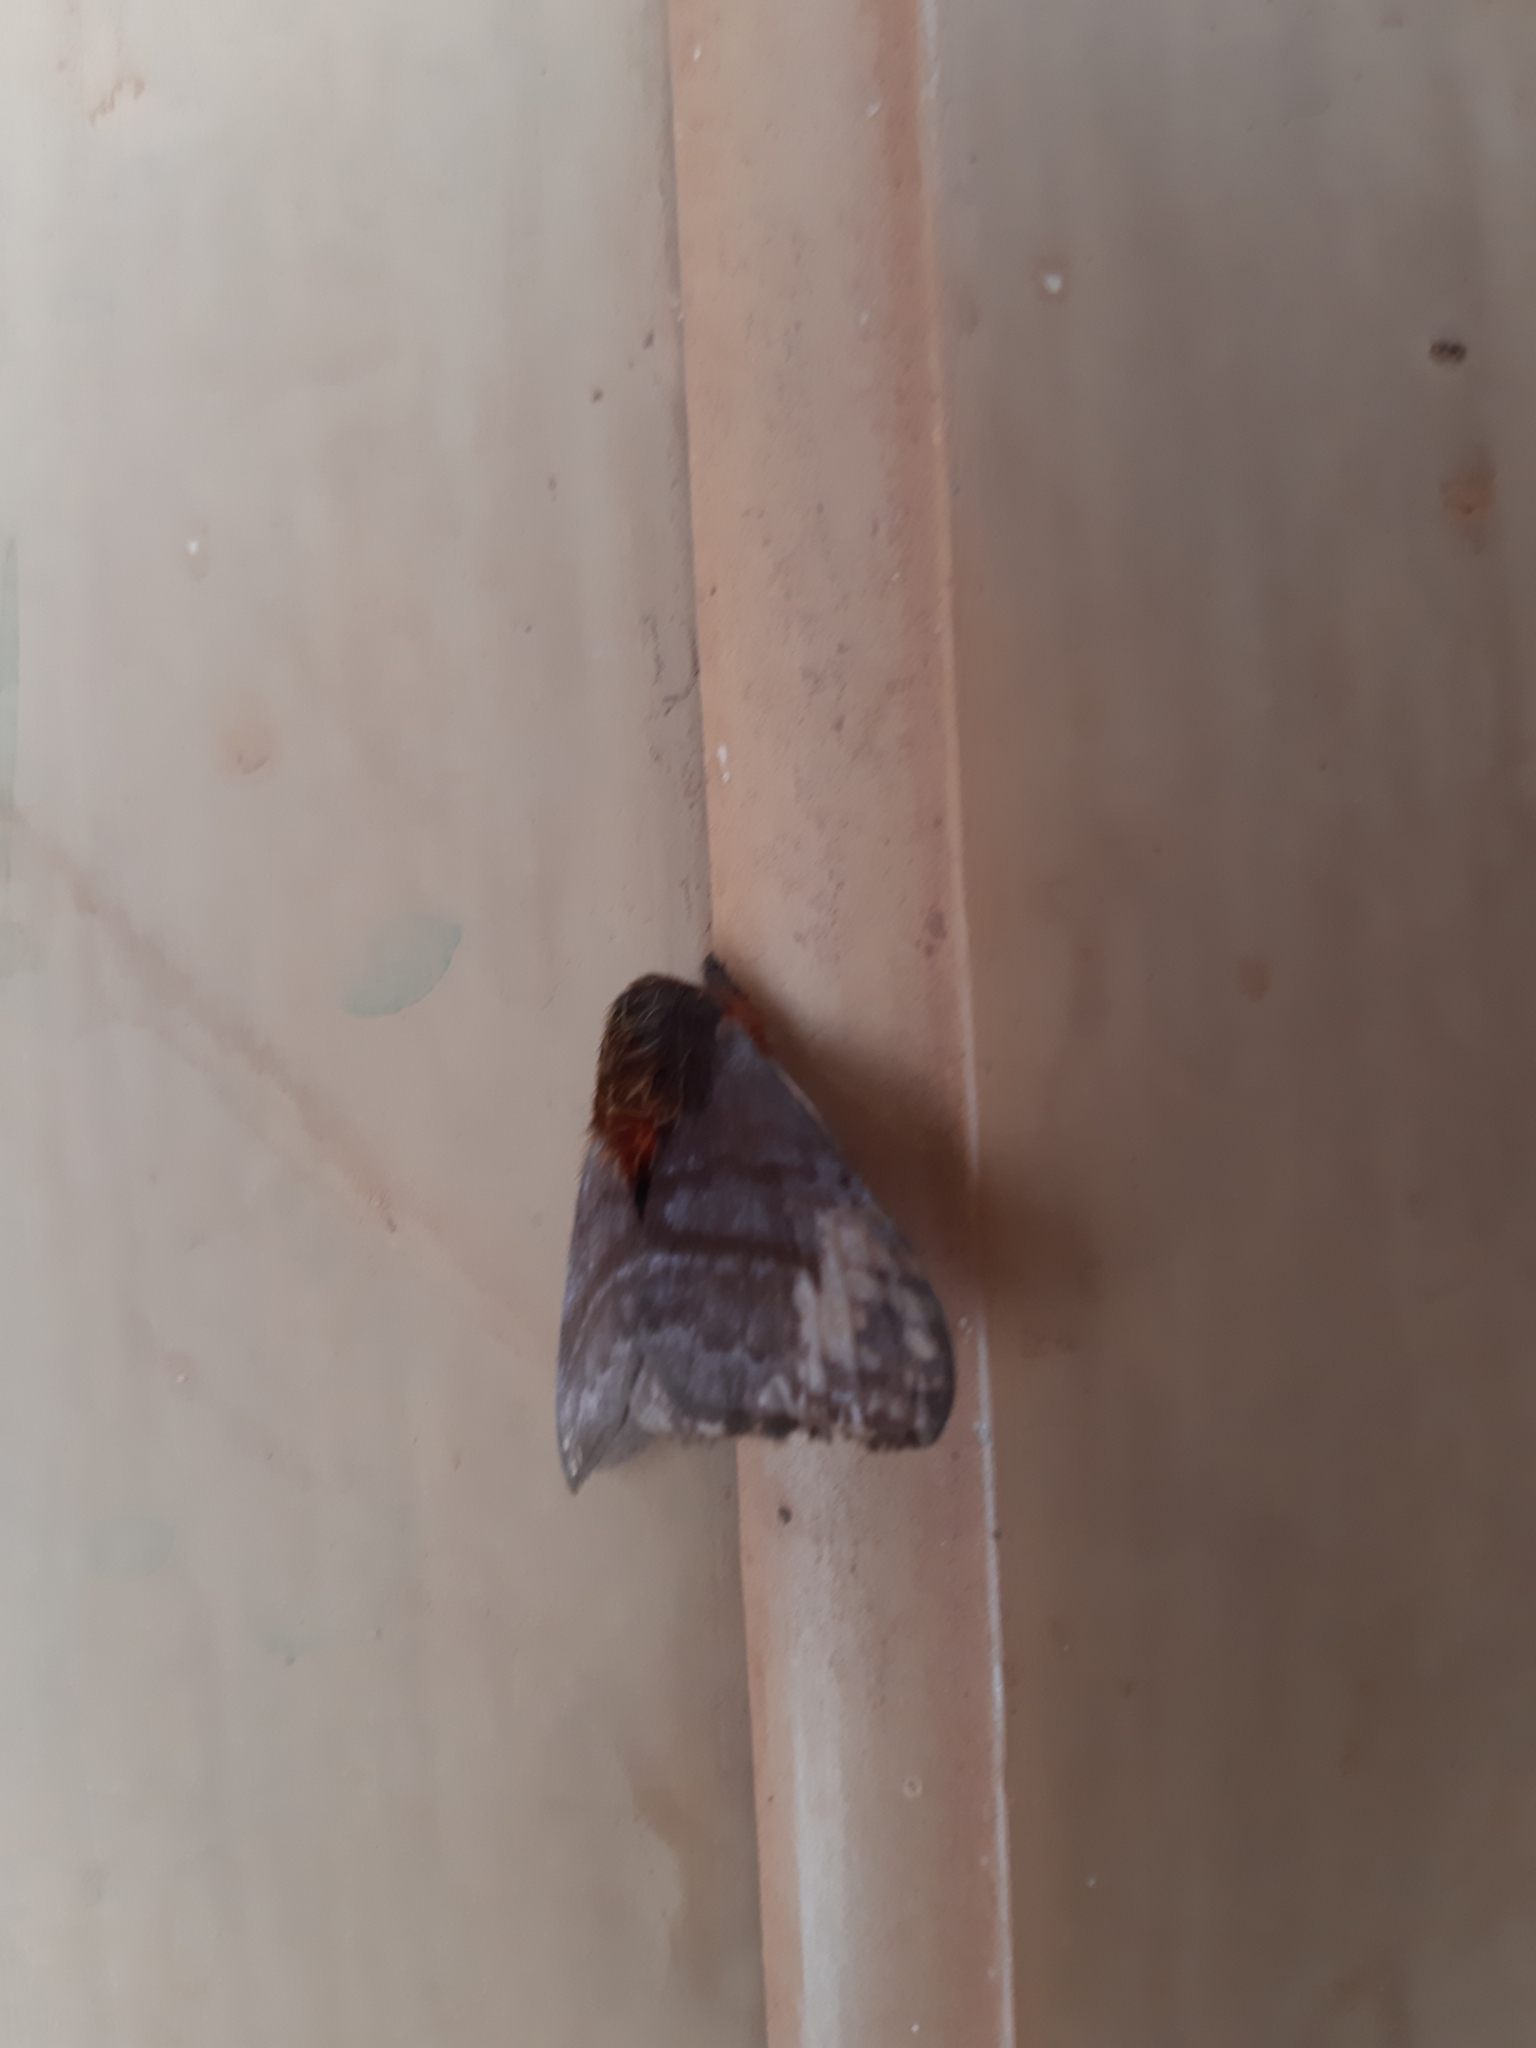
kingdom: Animalia
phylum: Arthropoda
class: Insecta
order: Lepidoptera
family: Saturniidae
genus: Hylesia
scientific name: Hylesia ebalus
